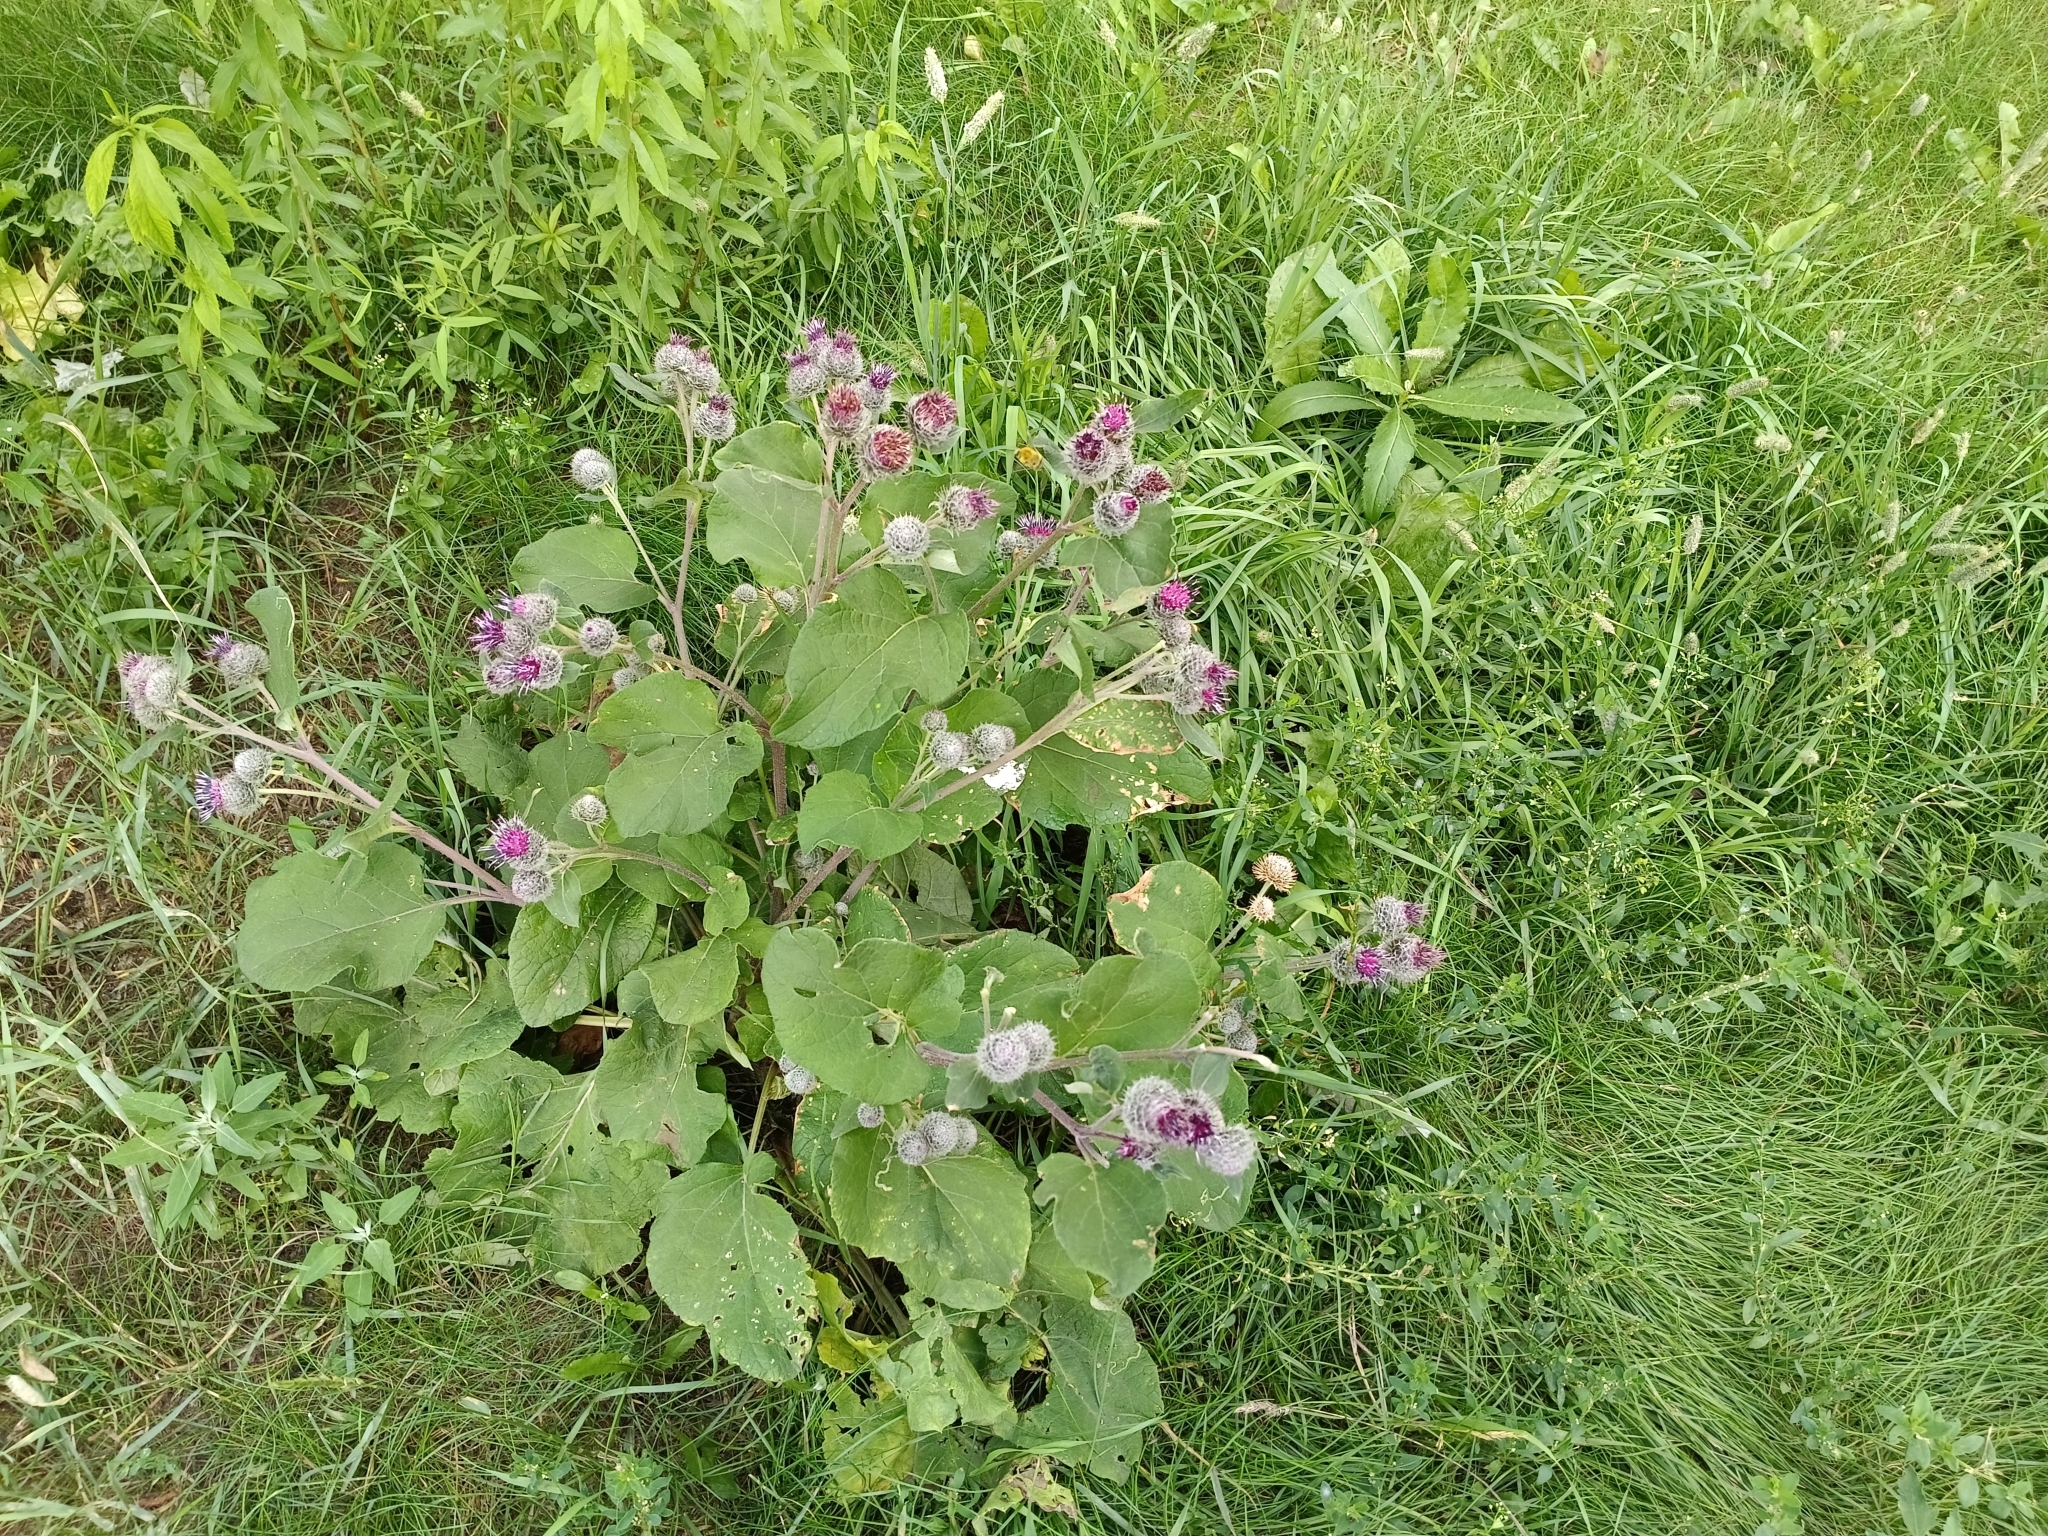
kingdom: Plantae
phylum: Tracheophyta
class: Magnoliopsida
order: Asterales
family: Asteraceae
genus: Arctium
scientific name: Arctium tomentosum
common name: Woolly burdock
